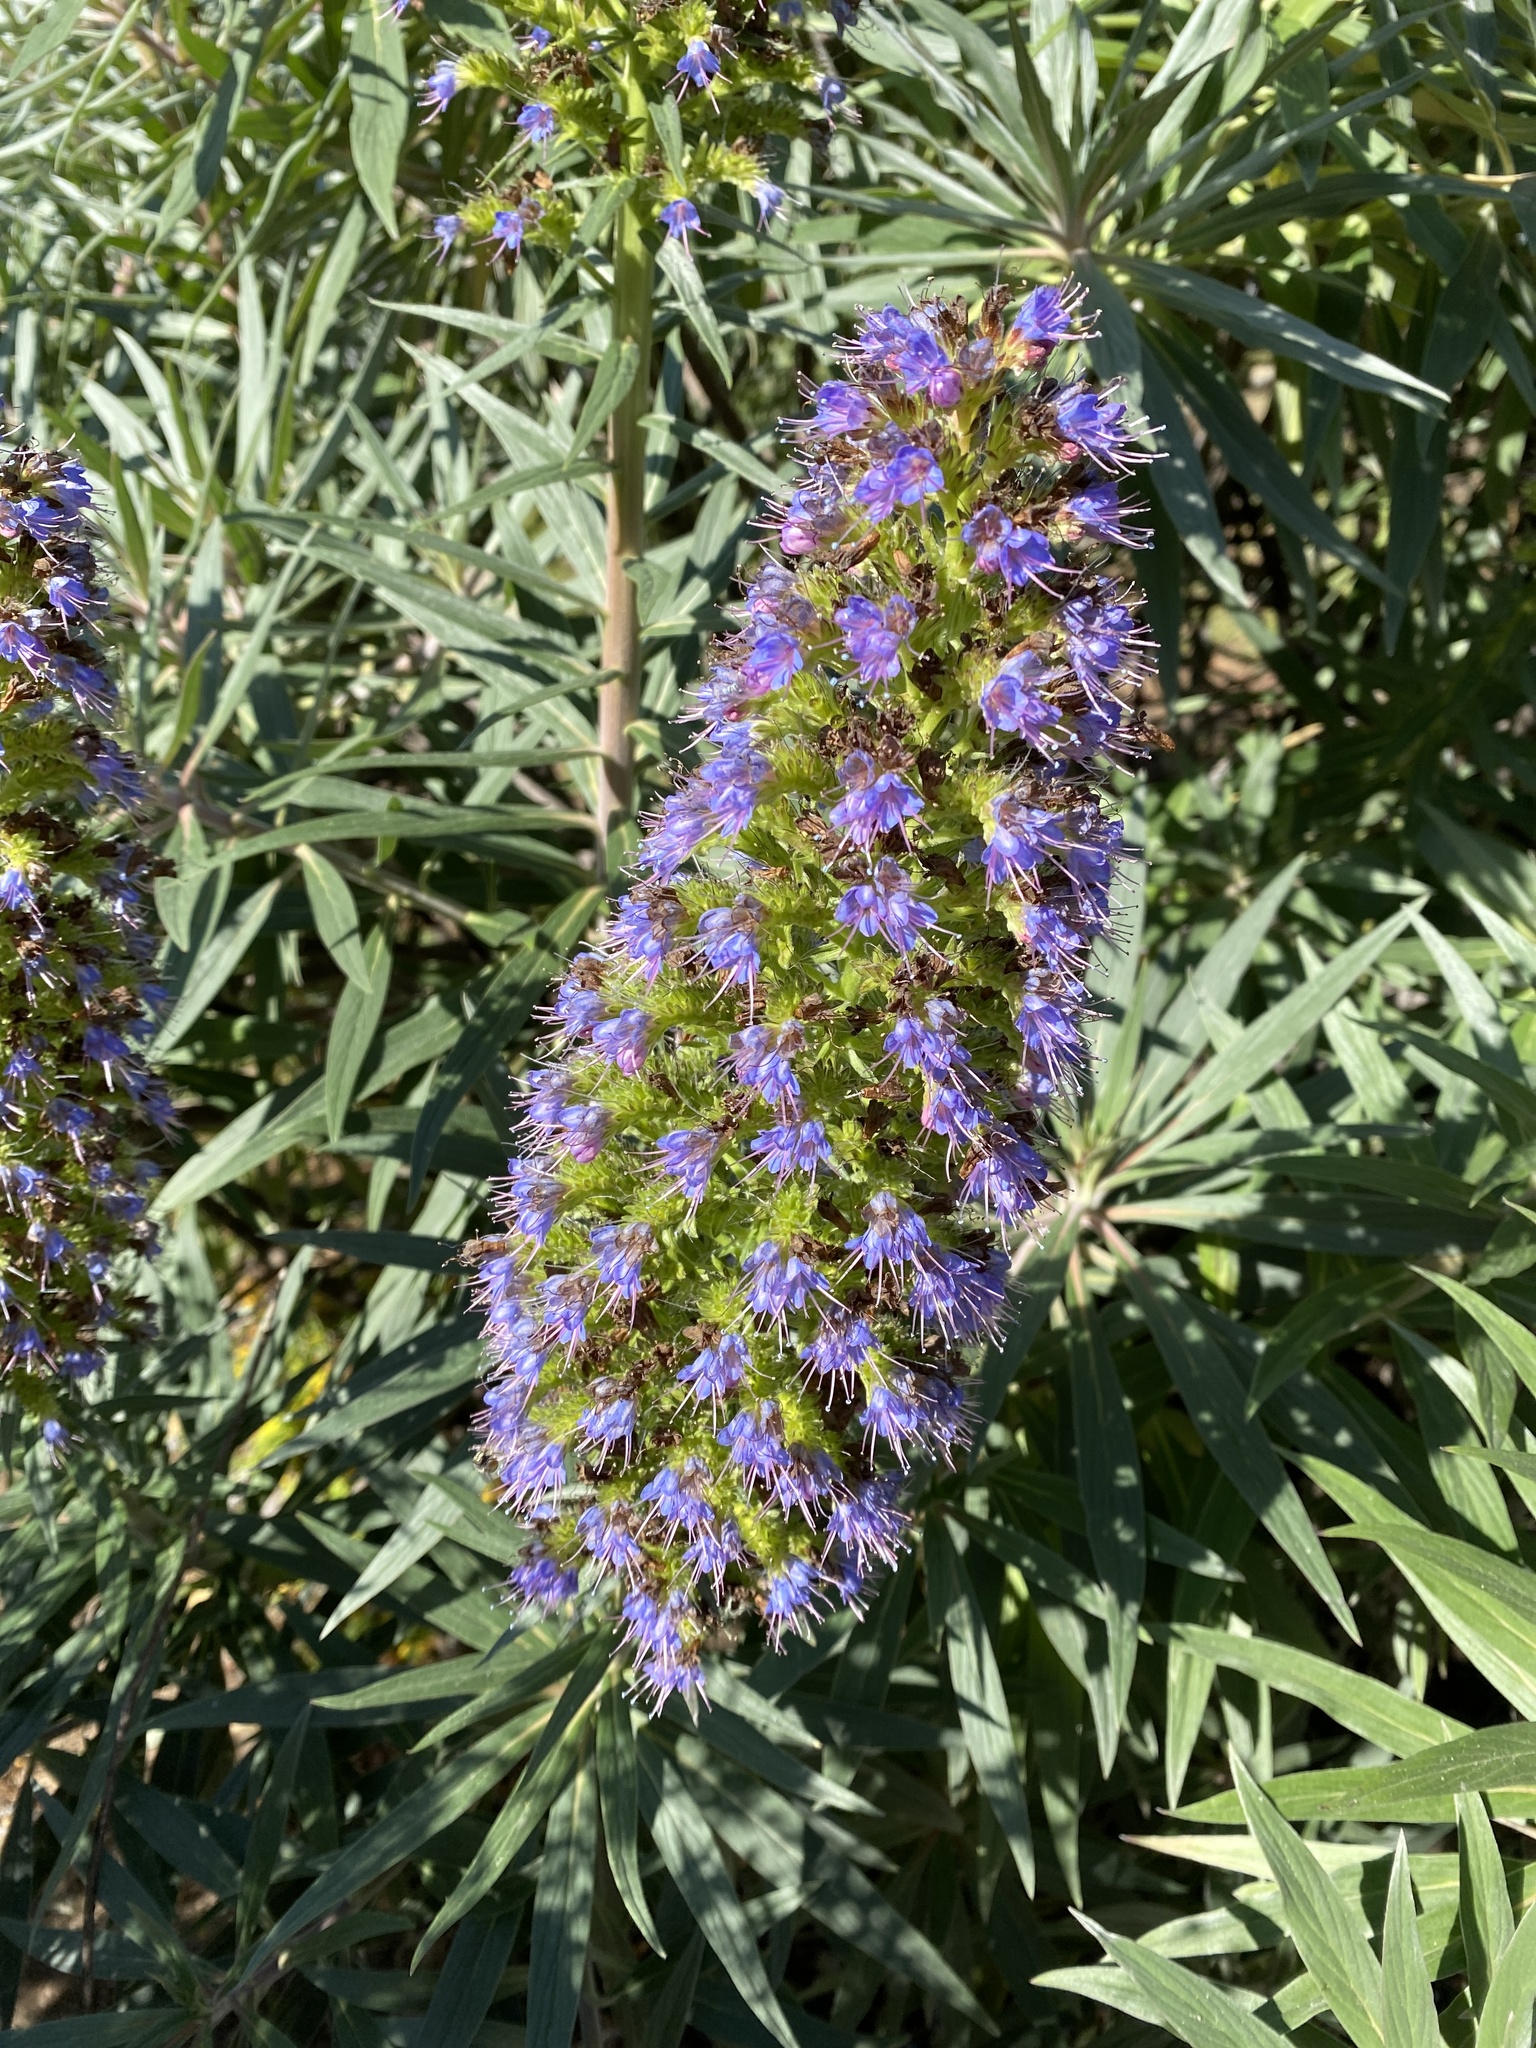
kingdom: Plantae
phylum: Tracheophyta
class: Magnoliopsida
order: Boraginales
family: Boraginaceae
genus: Echium
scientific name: Echium candicans
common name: Pride of madeira
